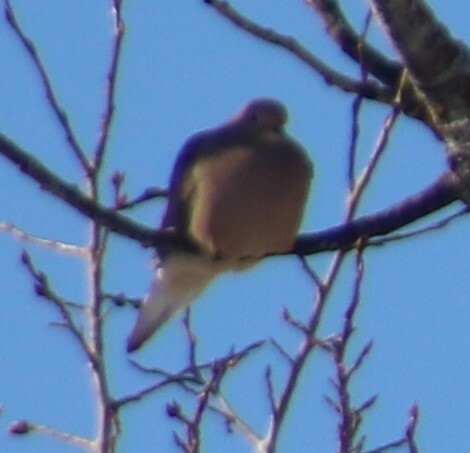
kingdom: Animalia
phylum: Chordata
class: Aves
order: Columbiformes
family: Columbidae
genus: Zenaida
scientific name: Zenaida macroura
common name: Mourning dove
